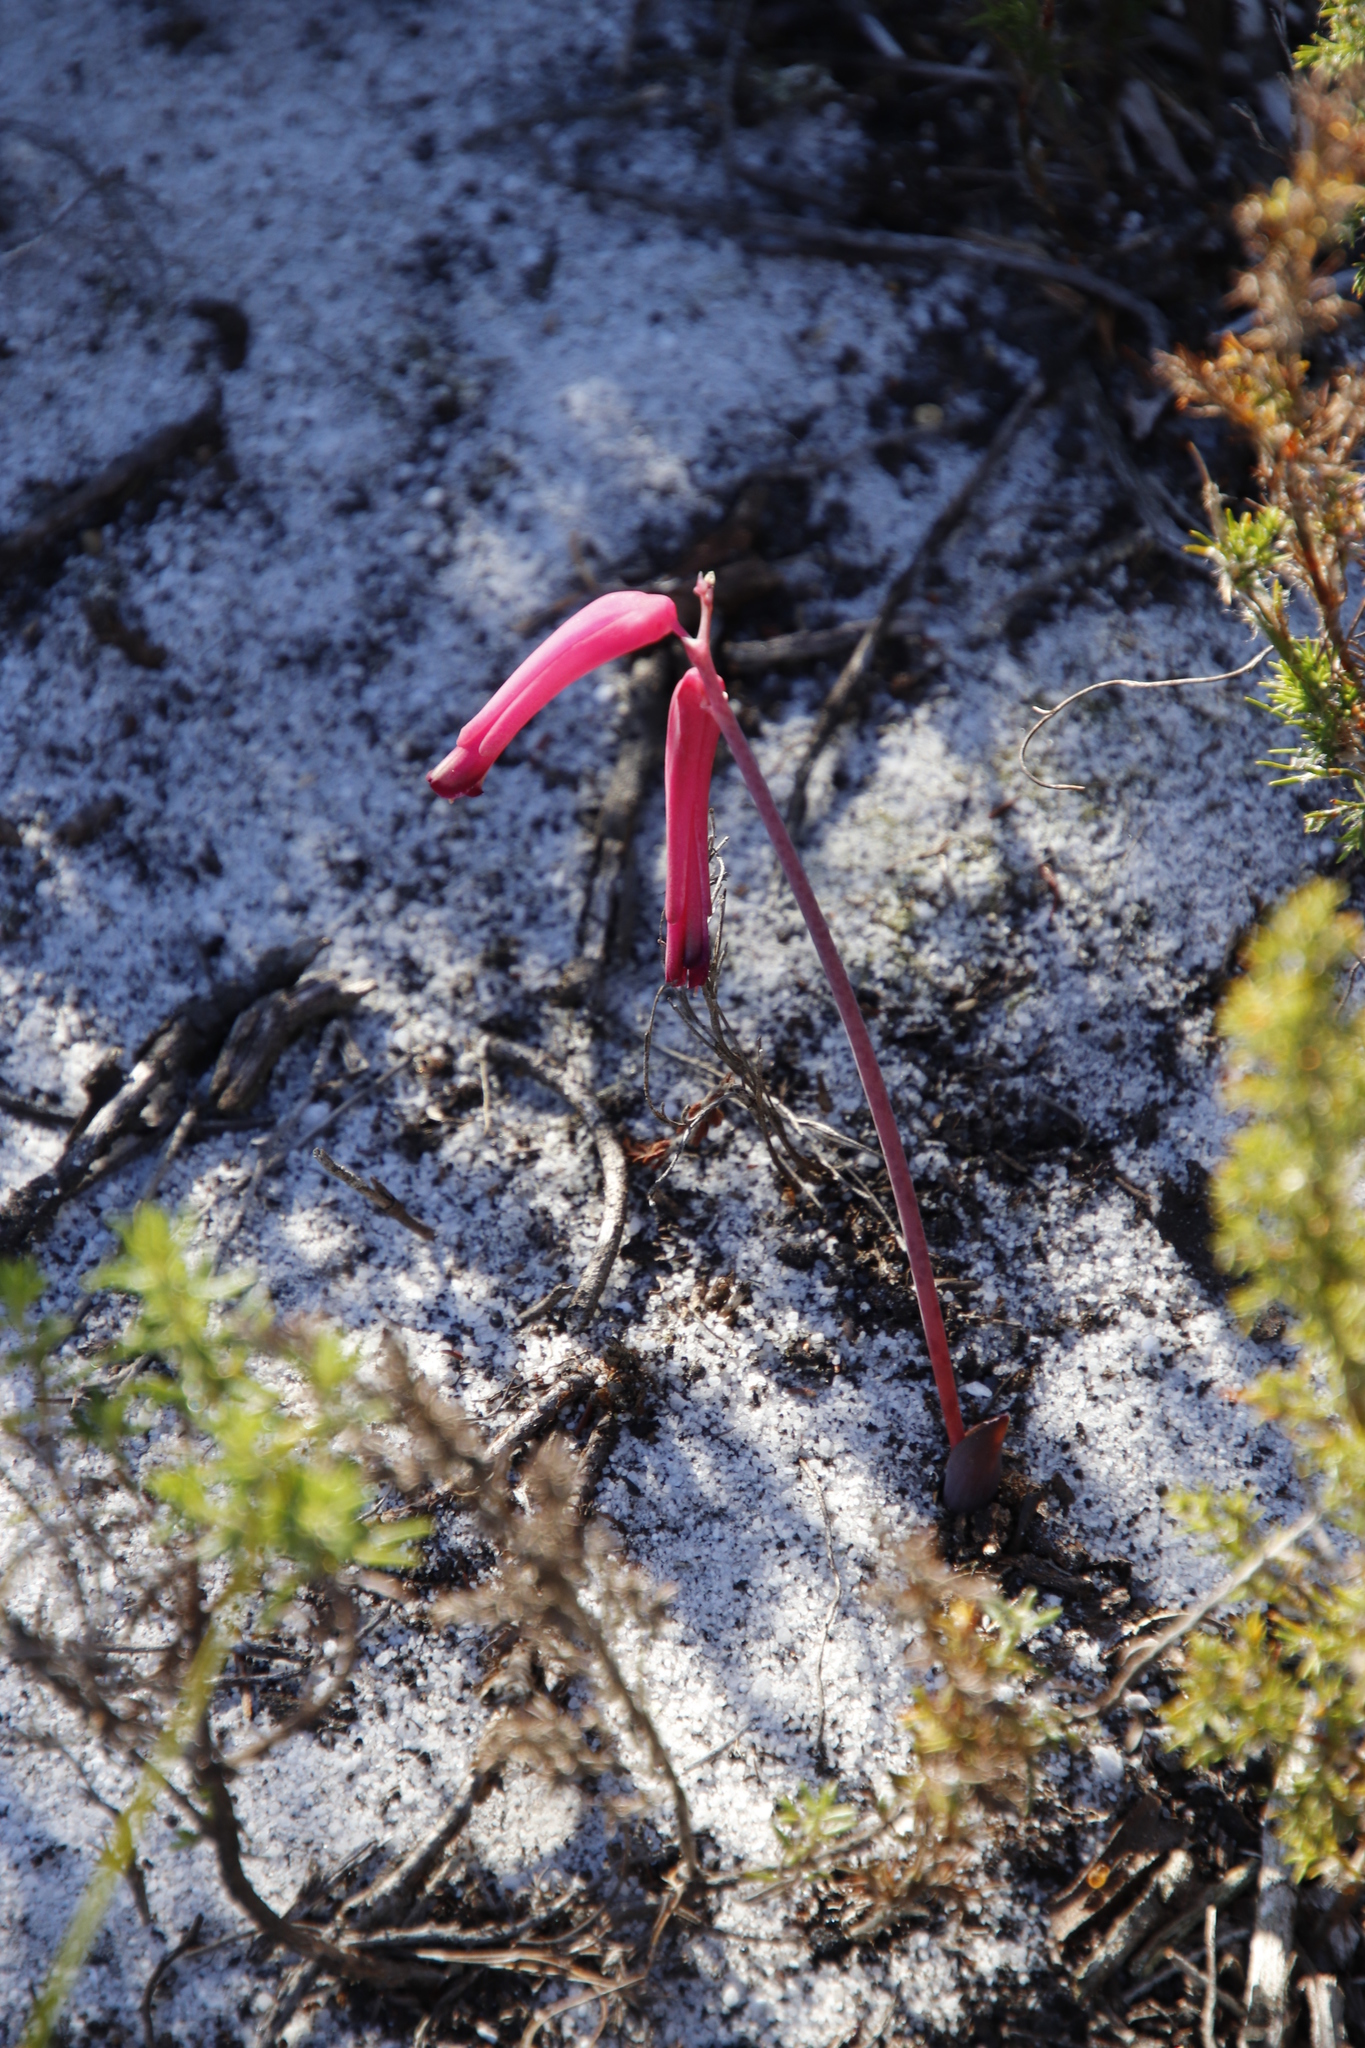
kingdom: Plantae
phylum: Tracheophyta
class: Liliopsida
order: Asparagales
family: Asparagaceae
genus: Lachenalia
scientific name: Lachenalia punctata
